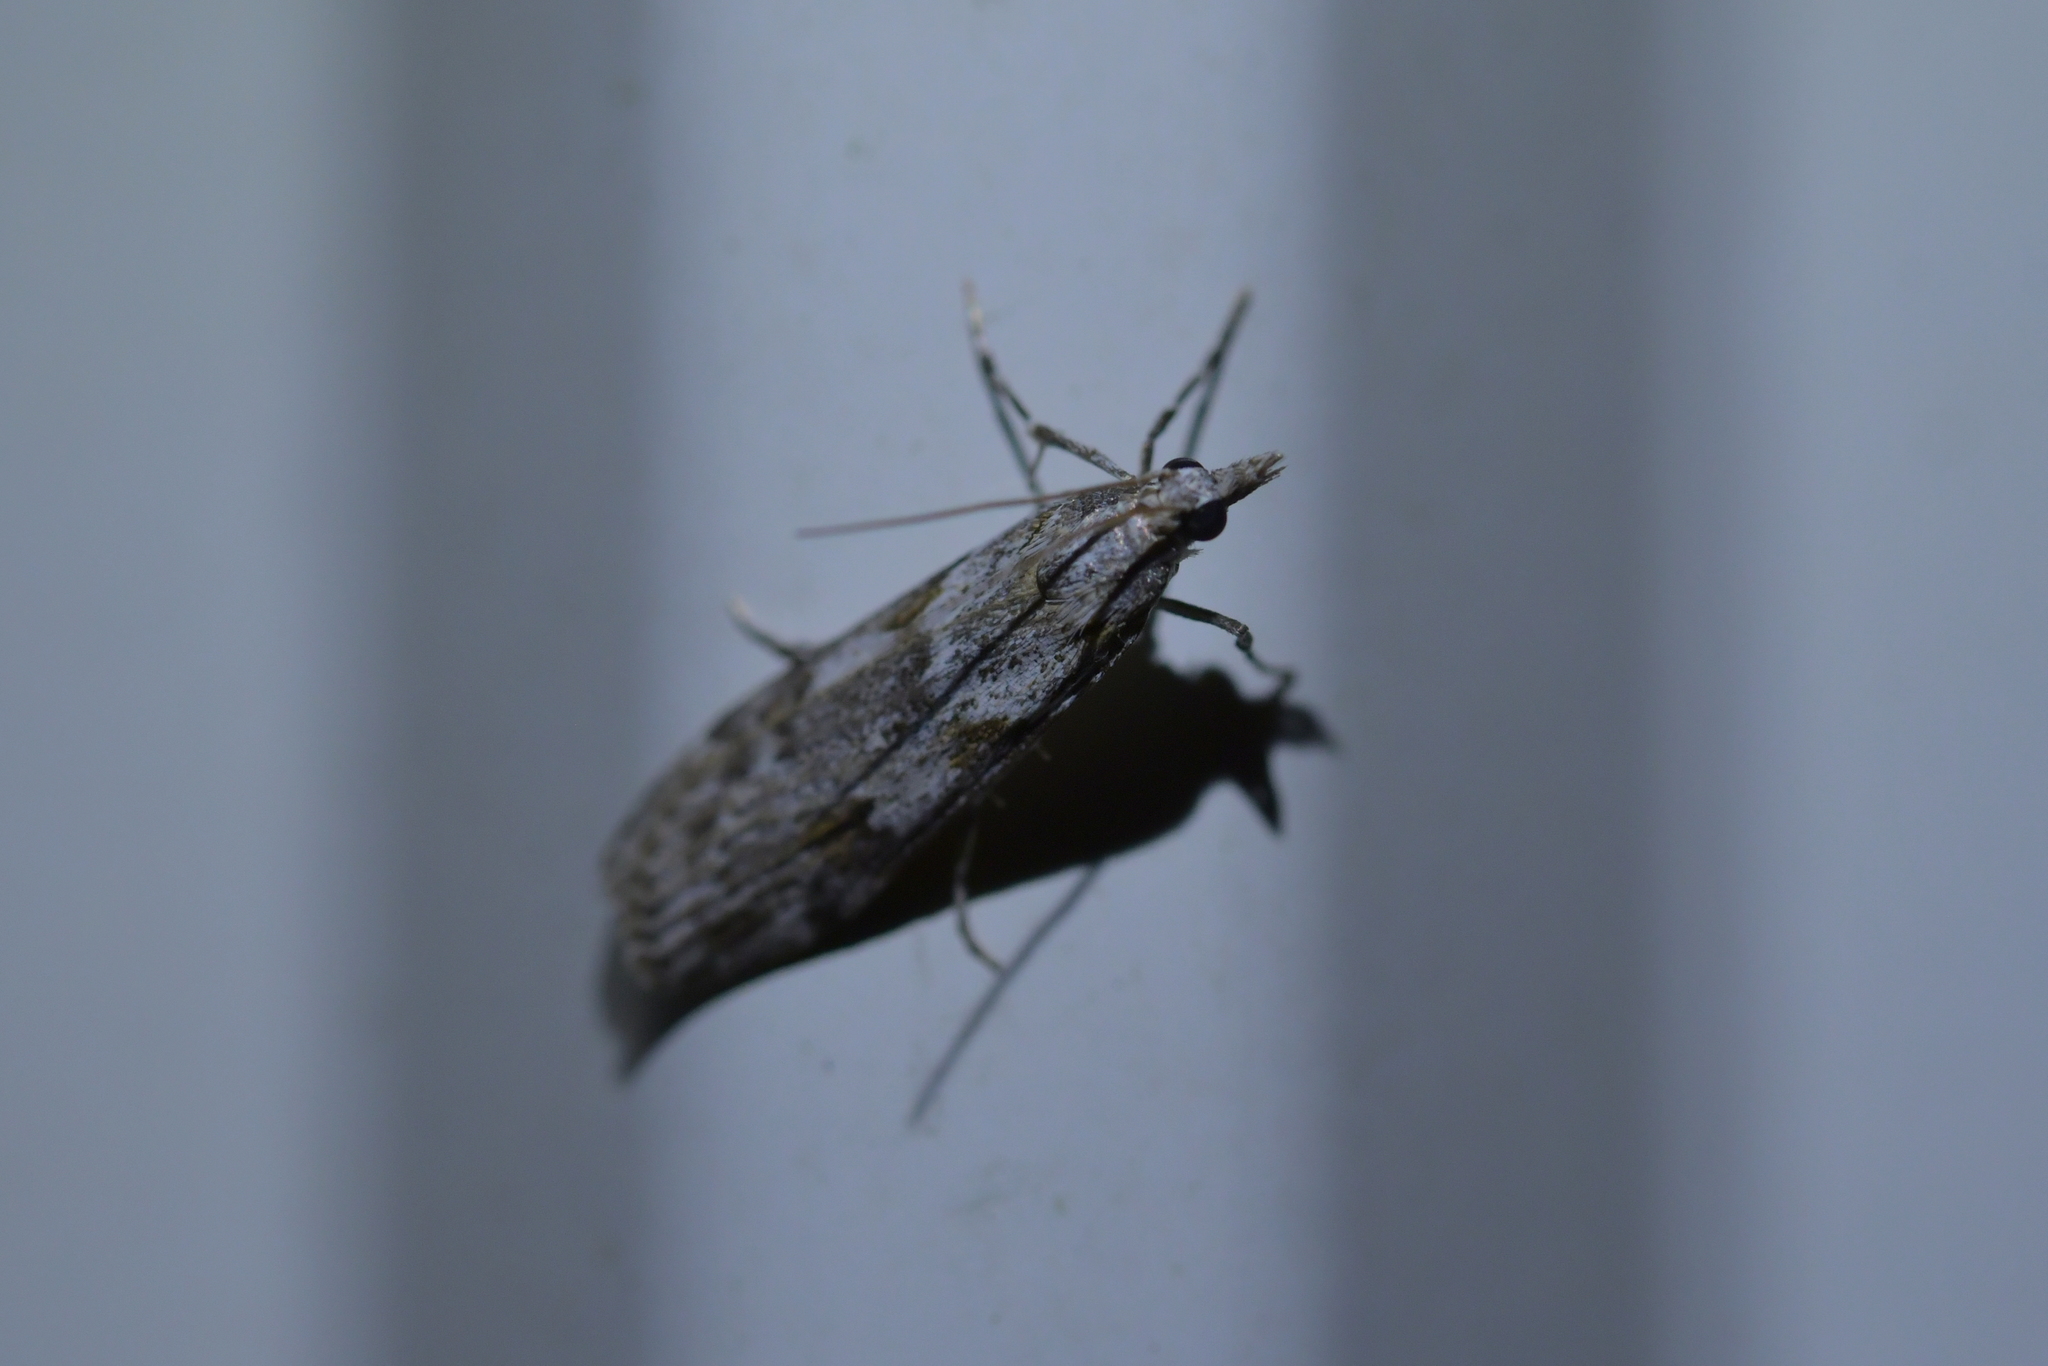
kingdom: Animalia
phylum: Arthropoda
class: Insecta
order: Lepidoptera
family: Crambidae
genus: Scoparia
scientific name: Scoparia halopis
